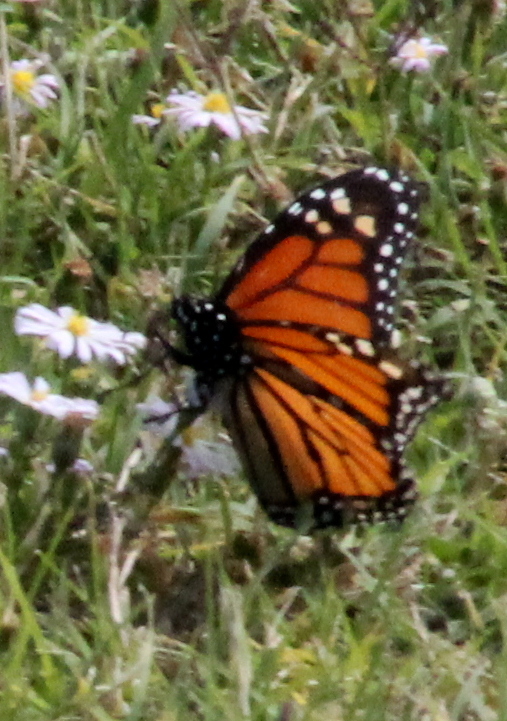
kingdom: Animalia
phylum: Arthropoda
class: Insecta
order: Lepidoptera
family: Nymphalidae
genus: Danaus
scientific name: Danaus plexippus
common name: Monarch
